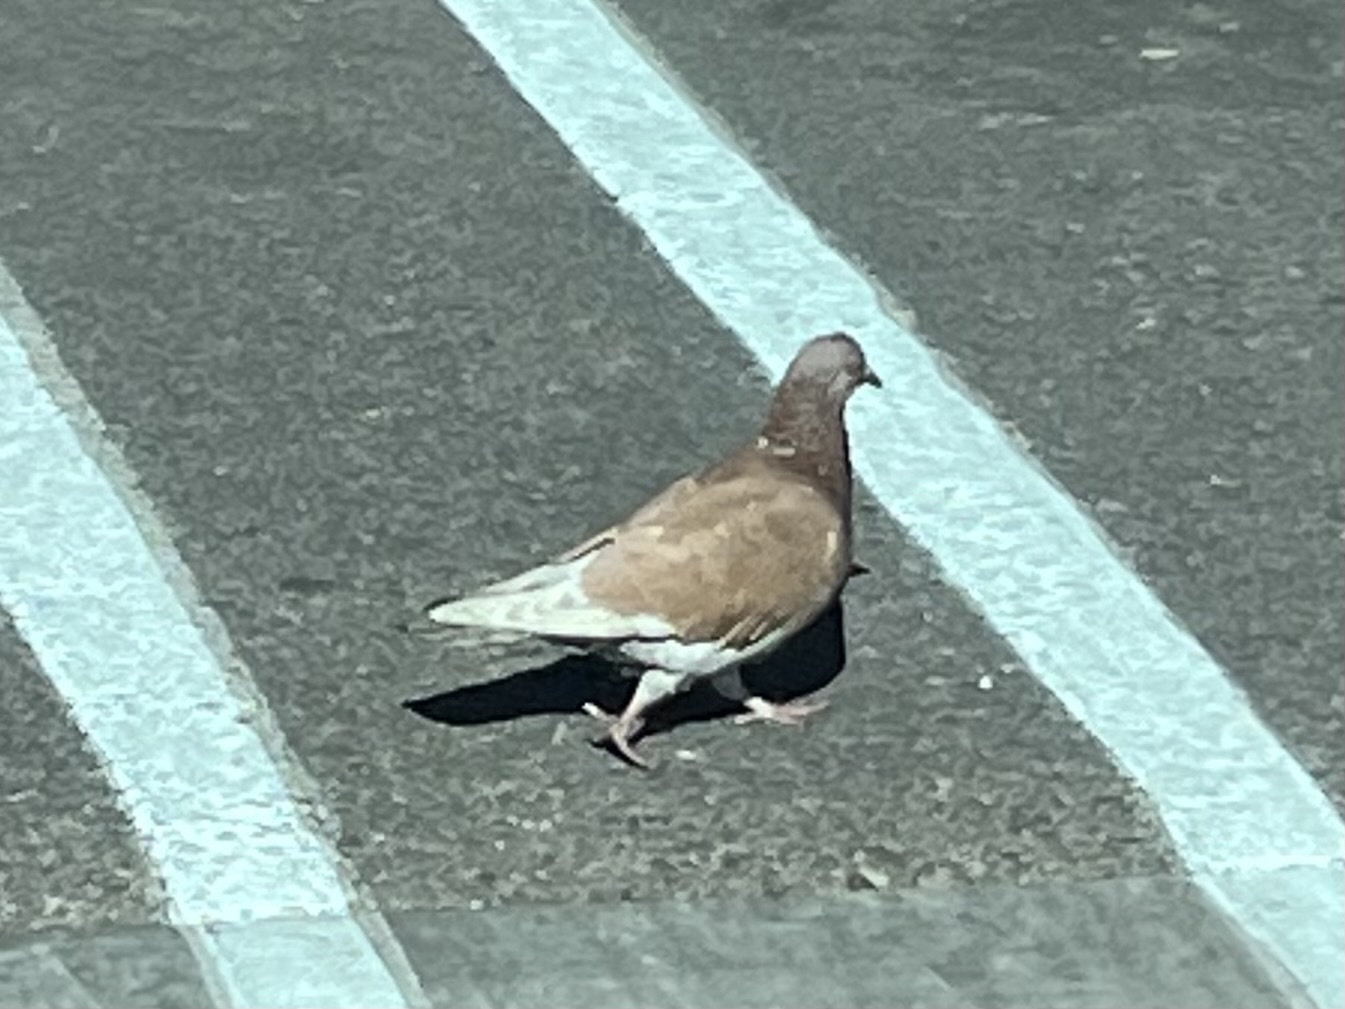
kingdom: Animalia
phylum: Chordata
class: Aves
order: Columbiformes
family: Columbidae
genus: Columba
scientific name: Columba livia
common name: Rock pigeon
